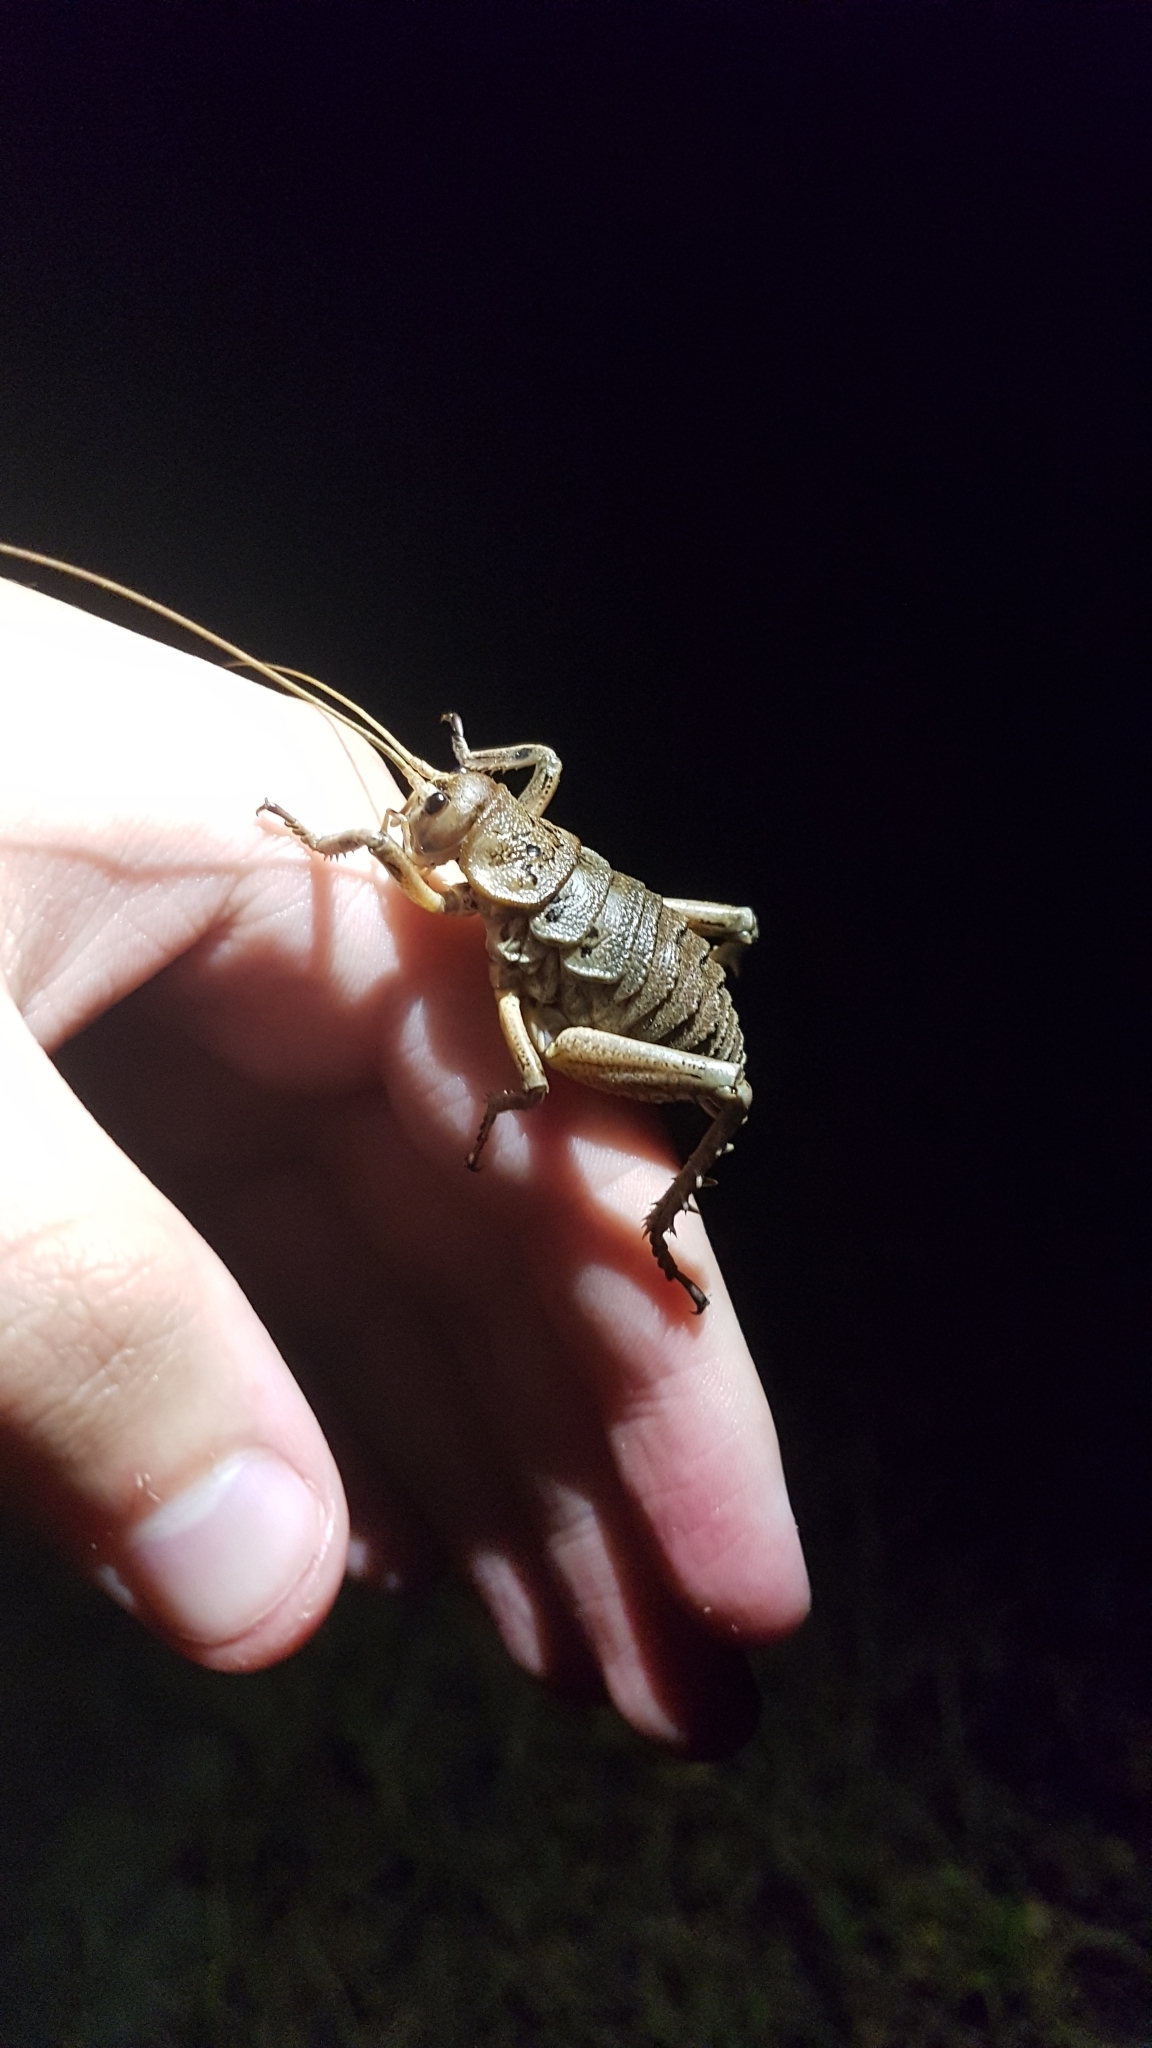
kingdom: Animalia
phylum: Arthropoda
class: Insecta
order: Orthoptera
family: Anostostomatidae
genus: Deinacrida
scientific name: Deinacrida rugosa
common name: Stephens island weta
